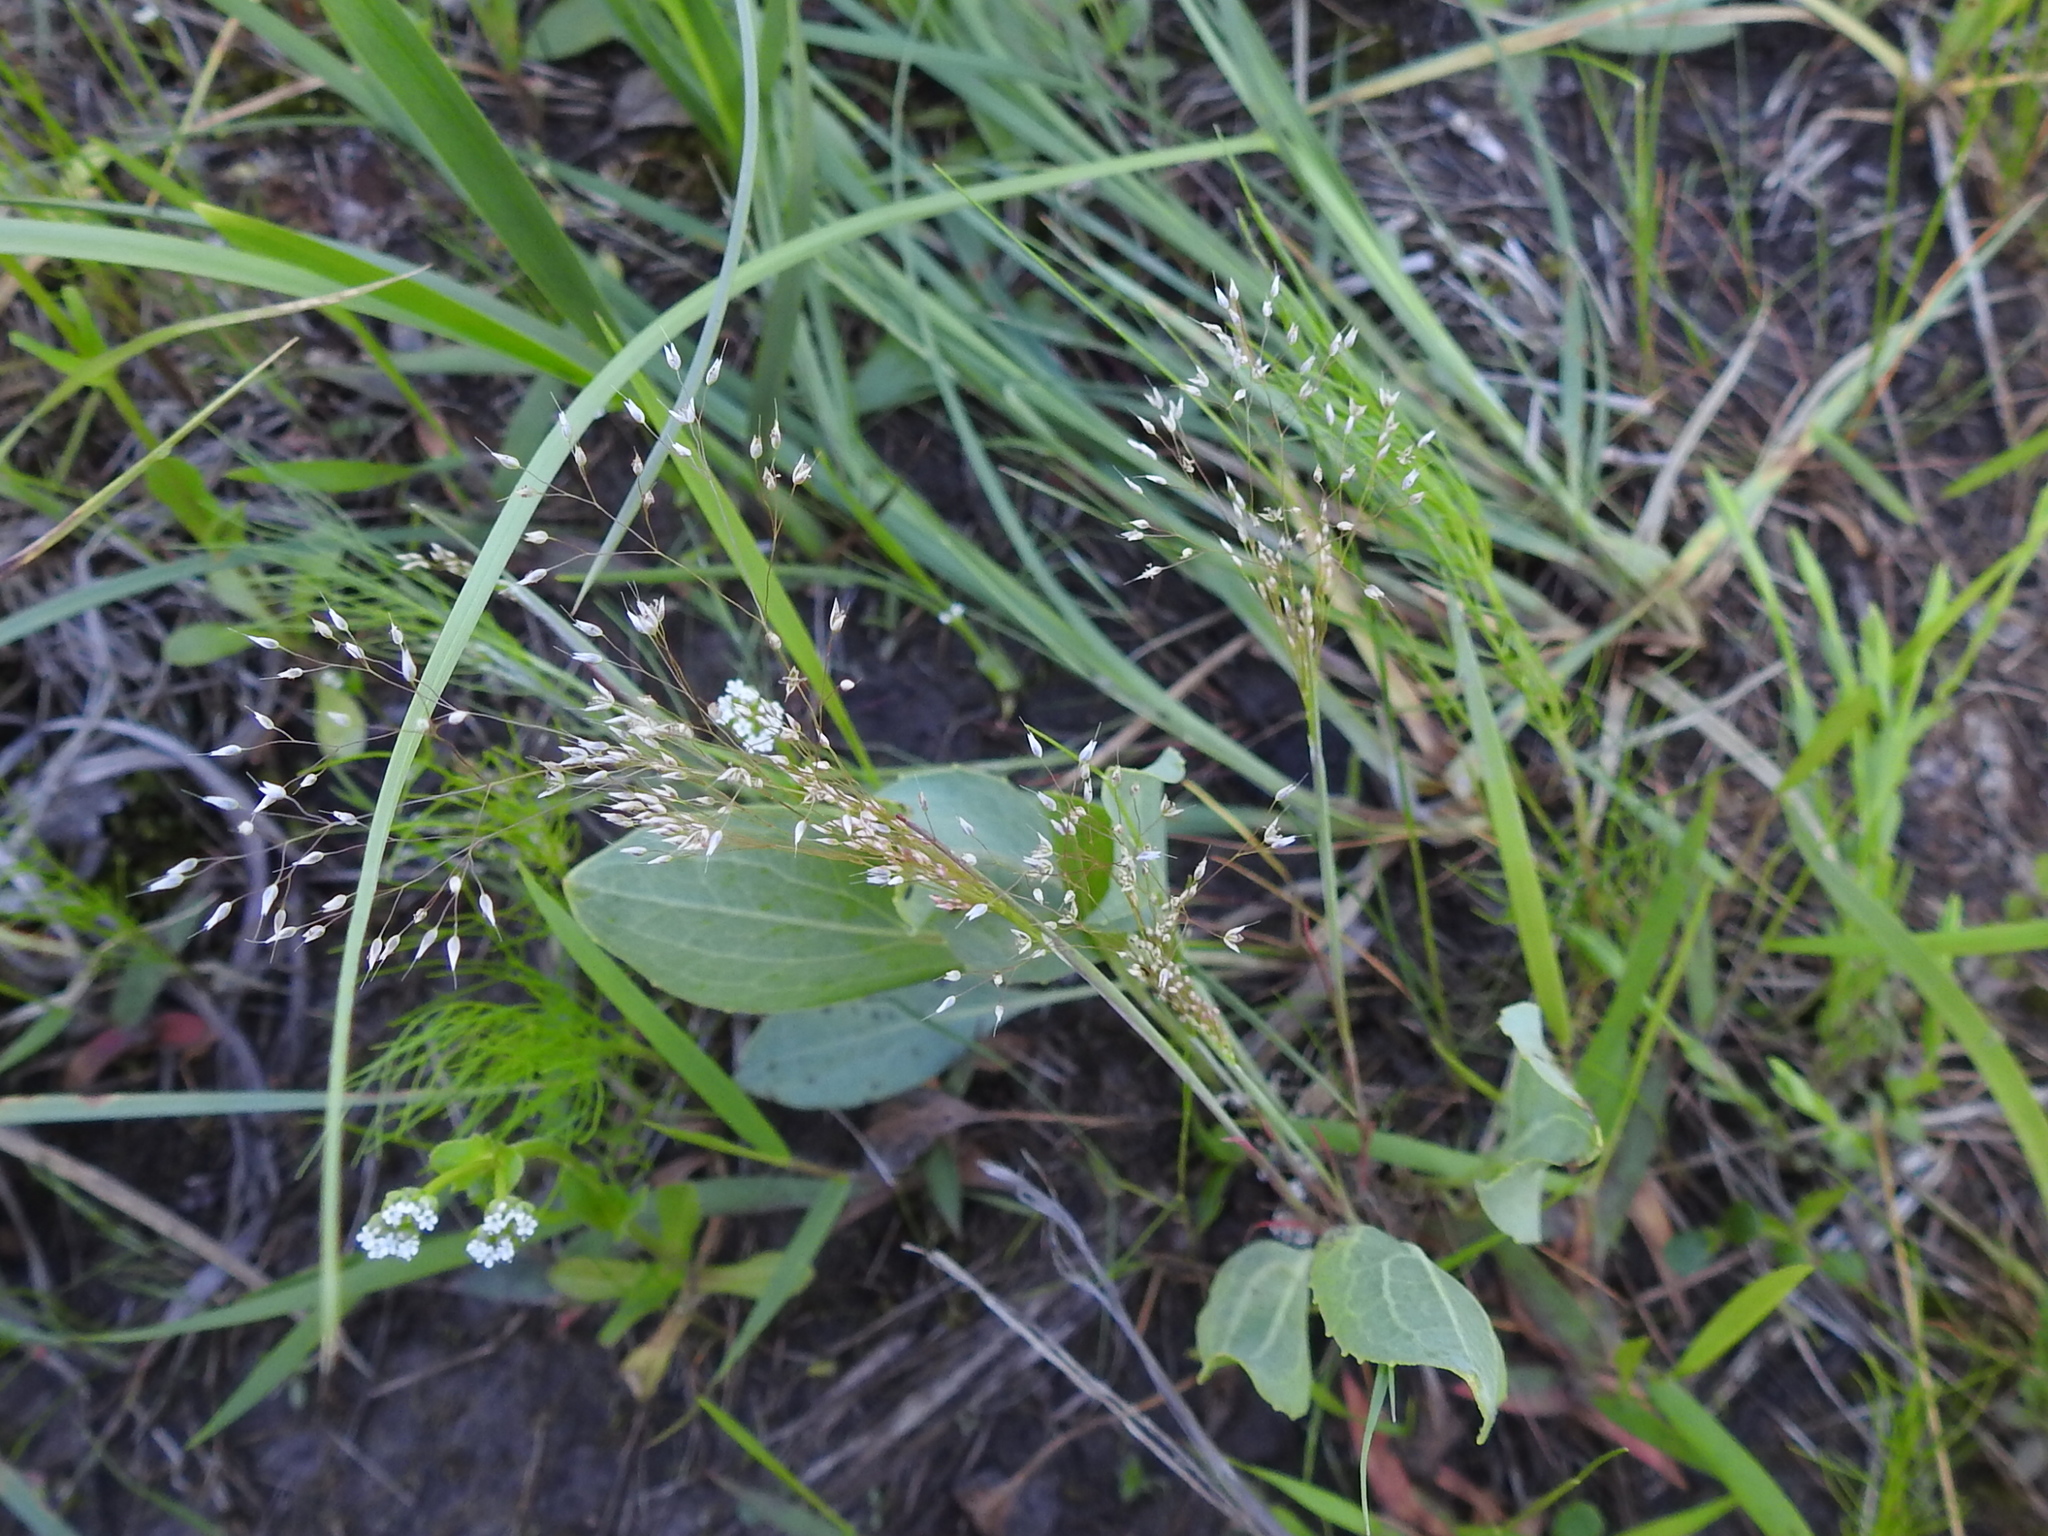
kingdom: Plantae
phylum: Tracheophyta
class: Liliopsida
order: Poales
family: Poaceae
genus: Aira
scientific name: Aira caryophyllea
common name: Silver hairgrass
